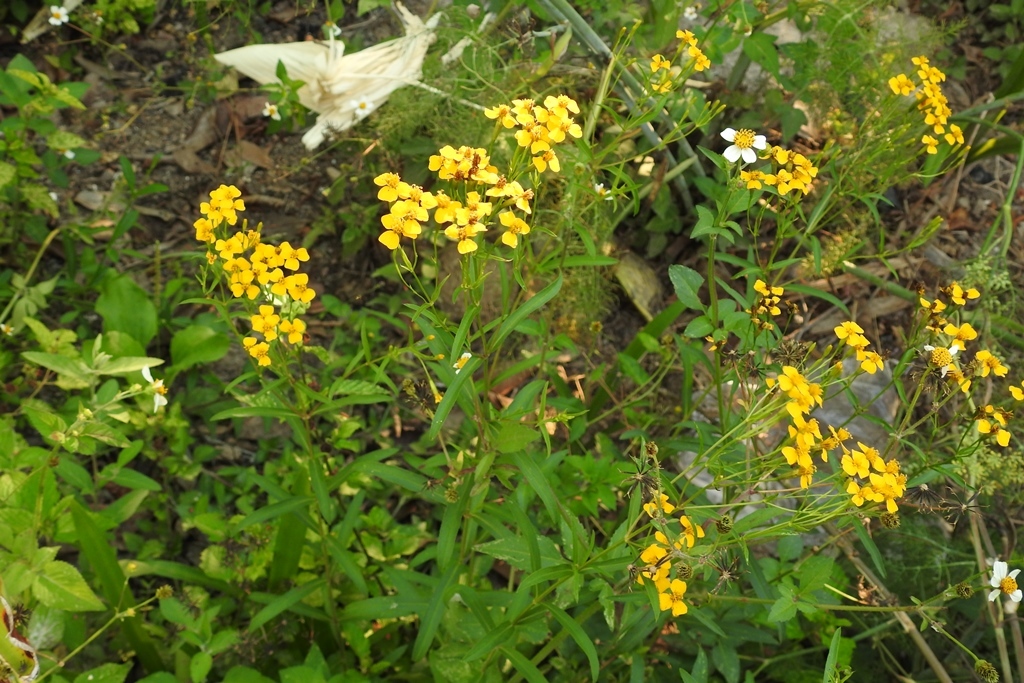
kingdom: Plantae
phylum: Tracheophyta
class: Magnoliopsida
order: Asterales
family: Asteraceae
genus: Tagetes
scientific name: Tagetes lucida
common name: Sweetscented marigold
